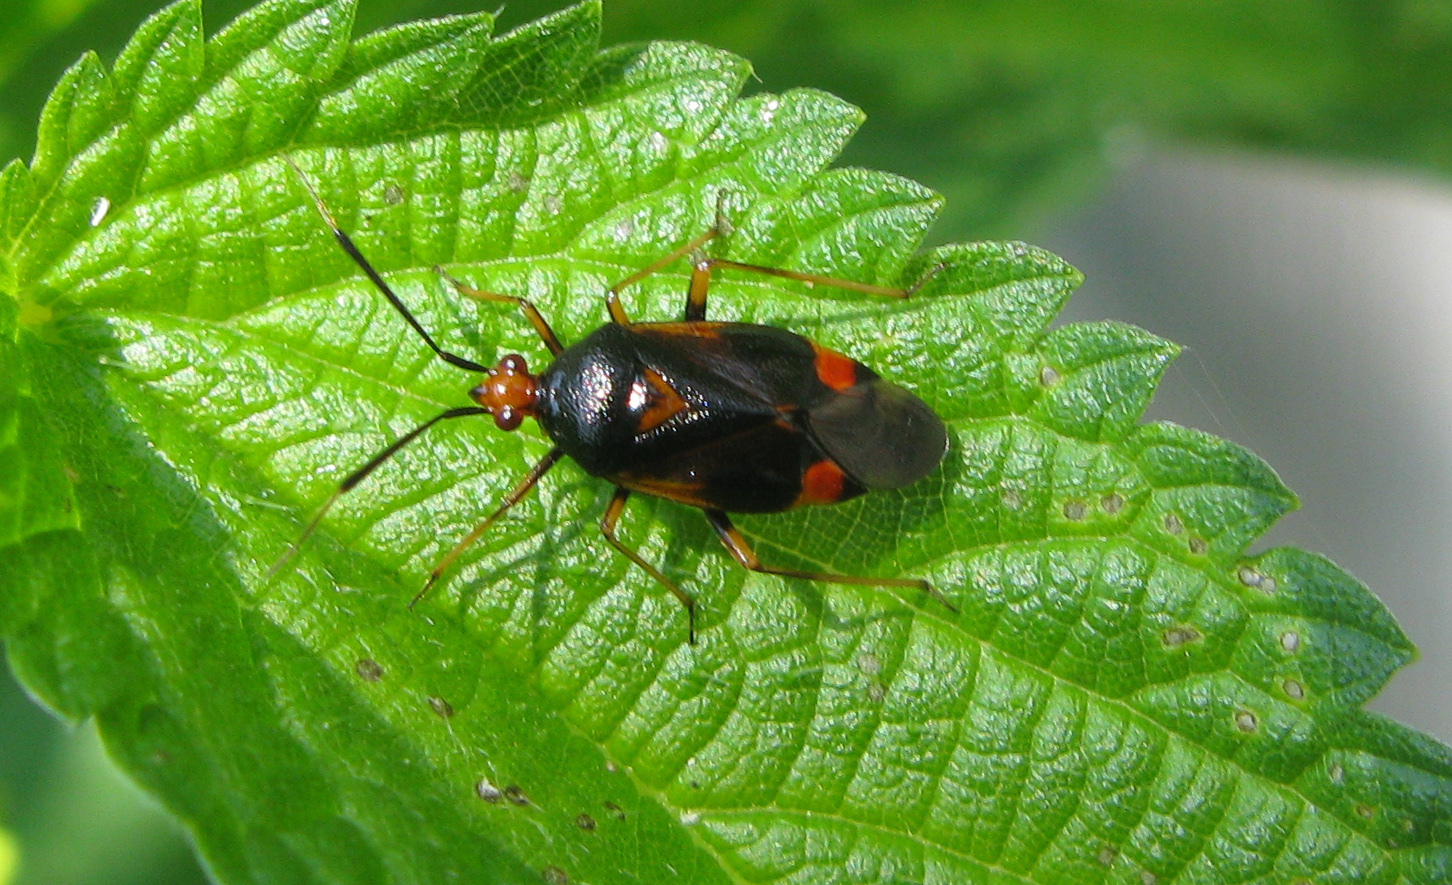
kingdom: Animalia
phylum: Arthropoda
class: Insecta
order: Hemiptera
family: Miridae
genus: Deraeocoris
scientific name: Deraeocoris ruber
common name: Plant bug
